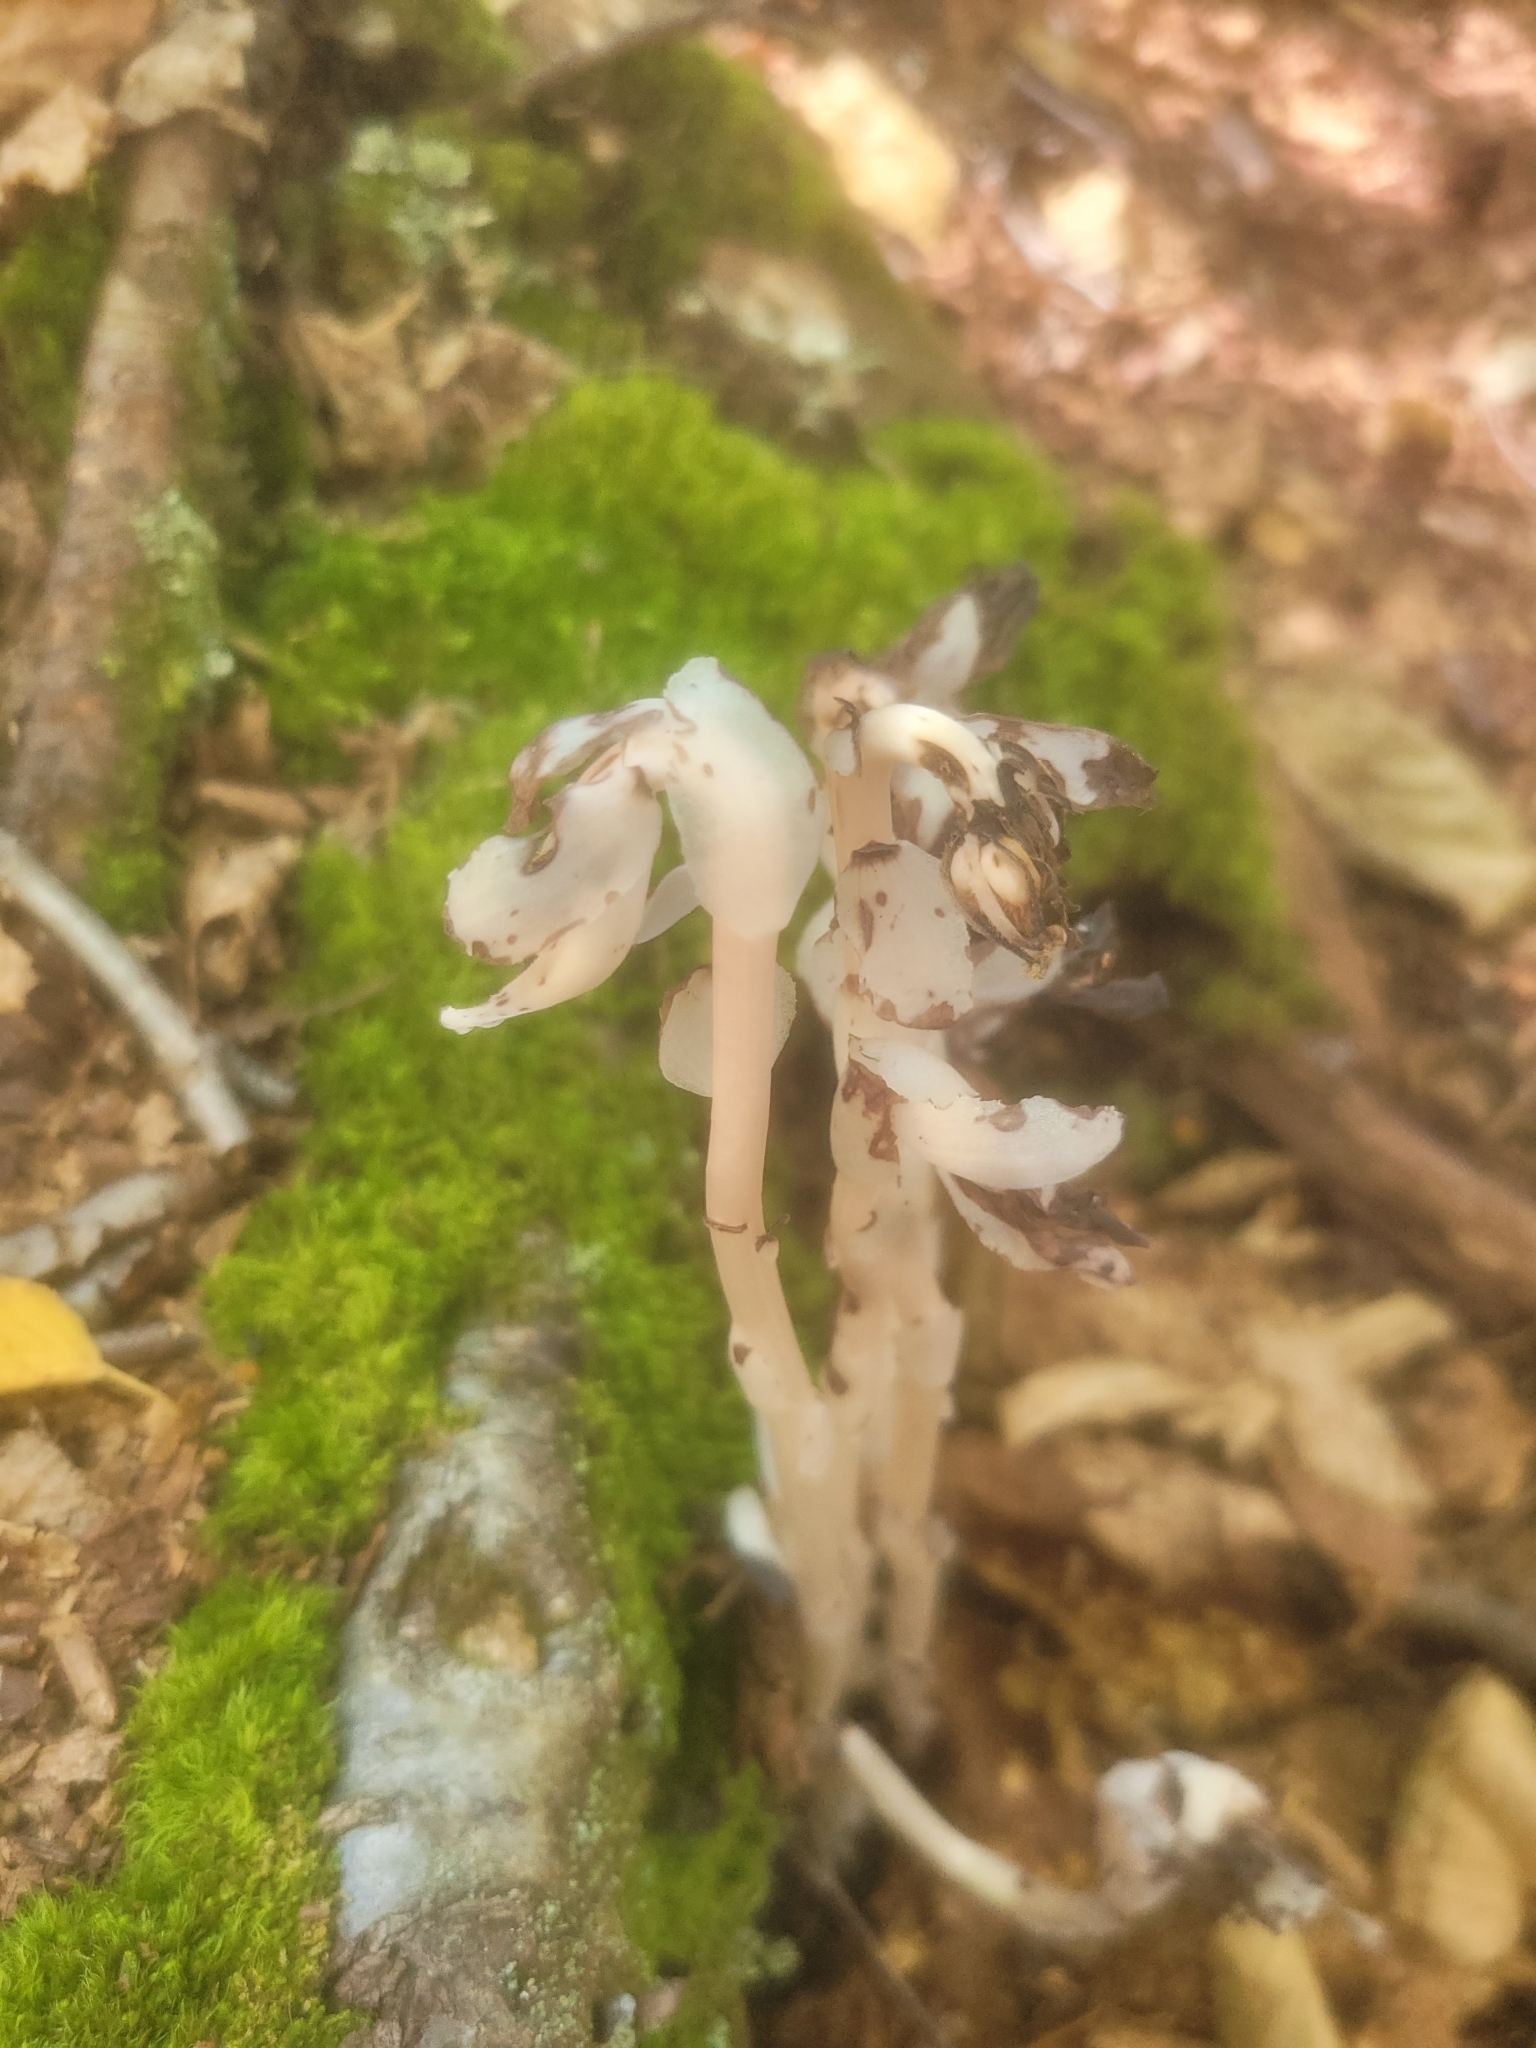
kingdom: Plantae
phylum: Tracheophyta
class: Magnoliopsida
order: Ericales
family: Ericaceae
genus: Monotropa
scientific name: Monotropa uniflora
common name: Convulsion root
